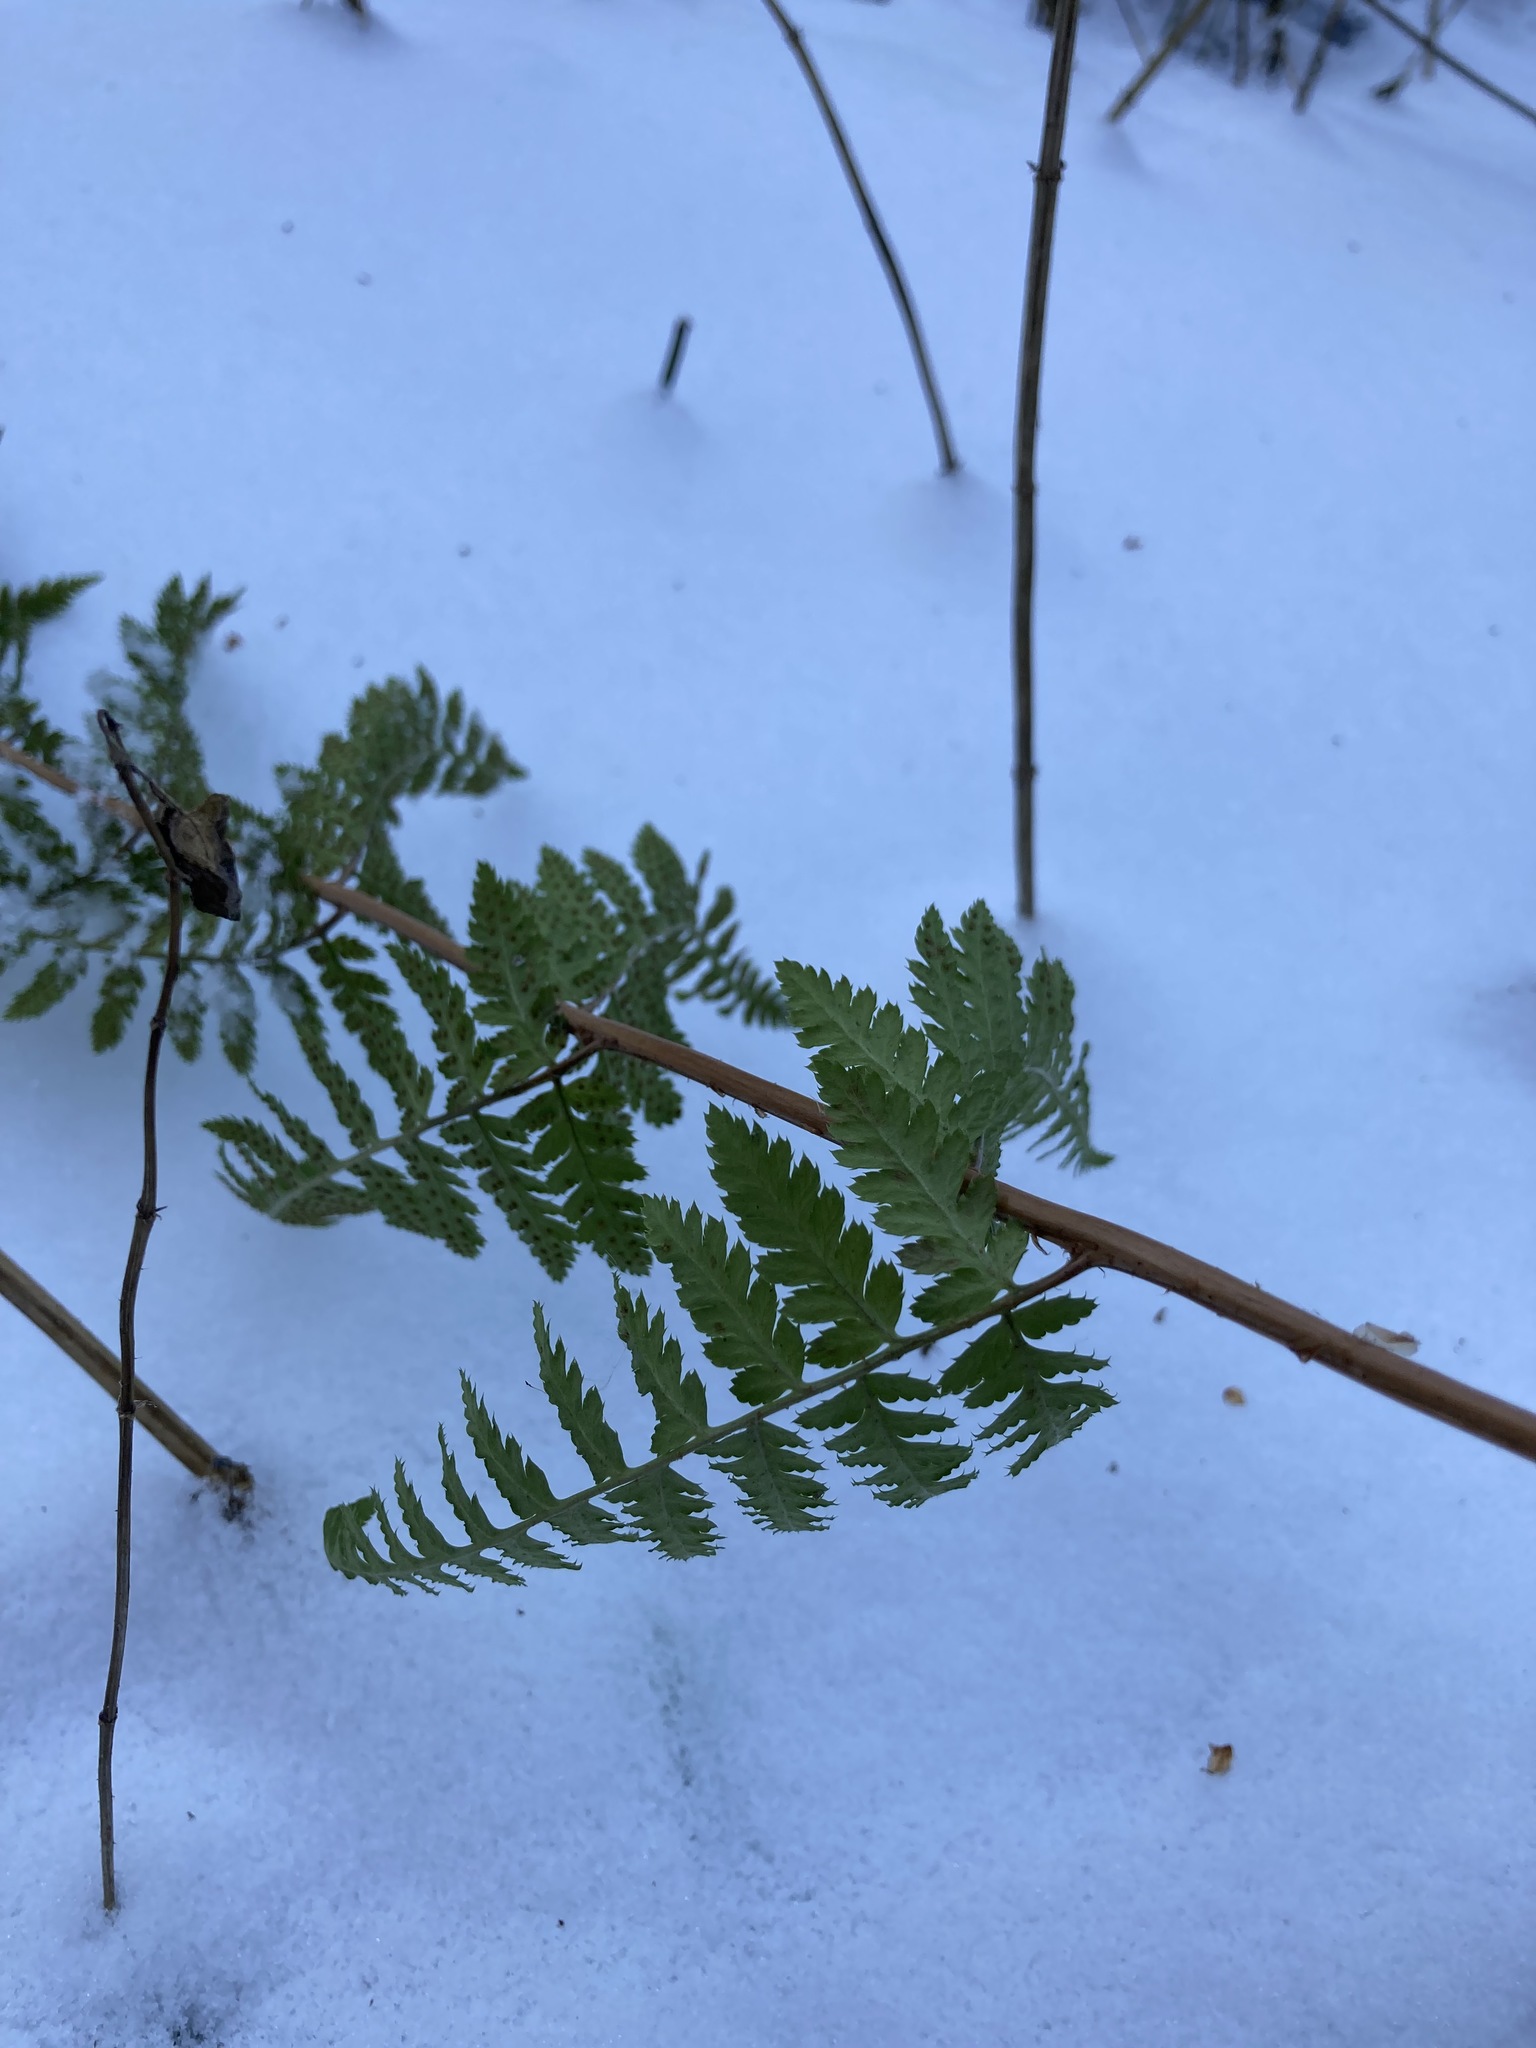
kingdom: Plantae
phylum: Tracheophyta
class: Polypodiopsida
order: Polypodiales
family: Dryopteridaceae
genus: Dryopteris
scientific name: Dryopteris carthusiana
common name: Narrow buckler-fern
